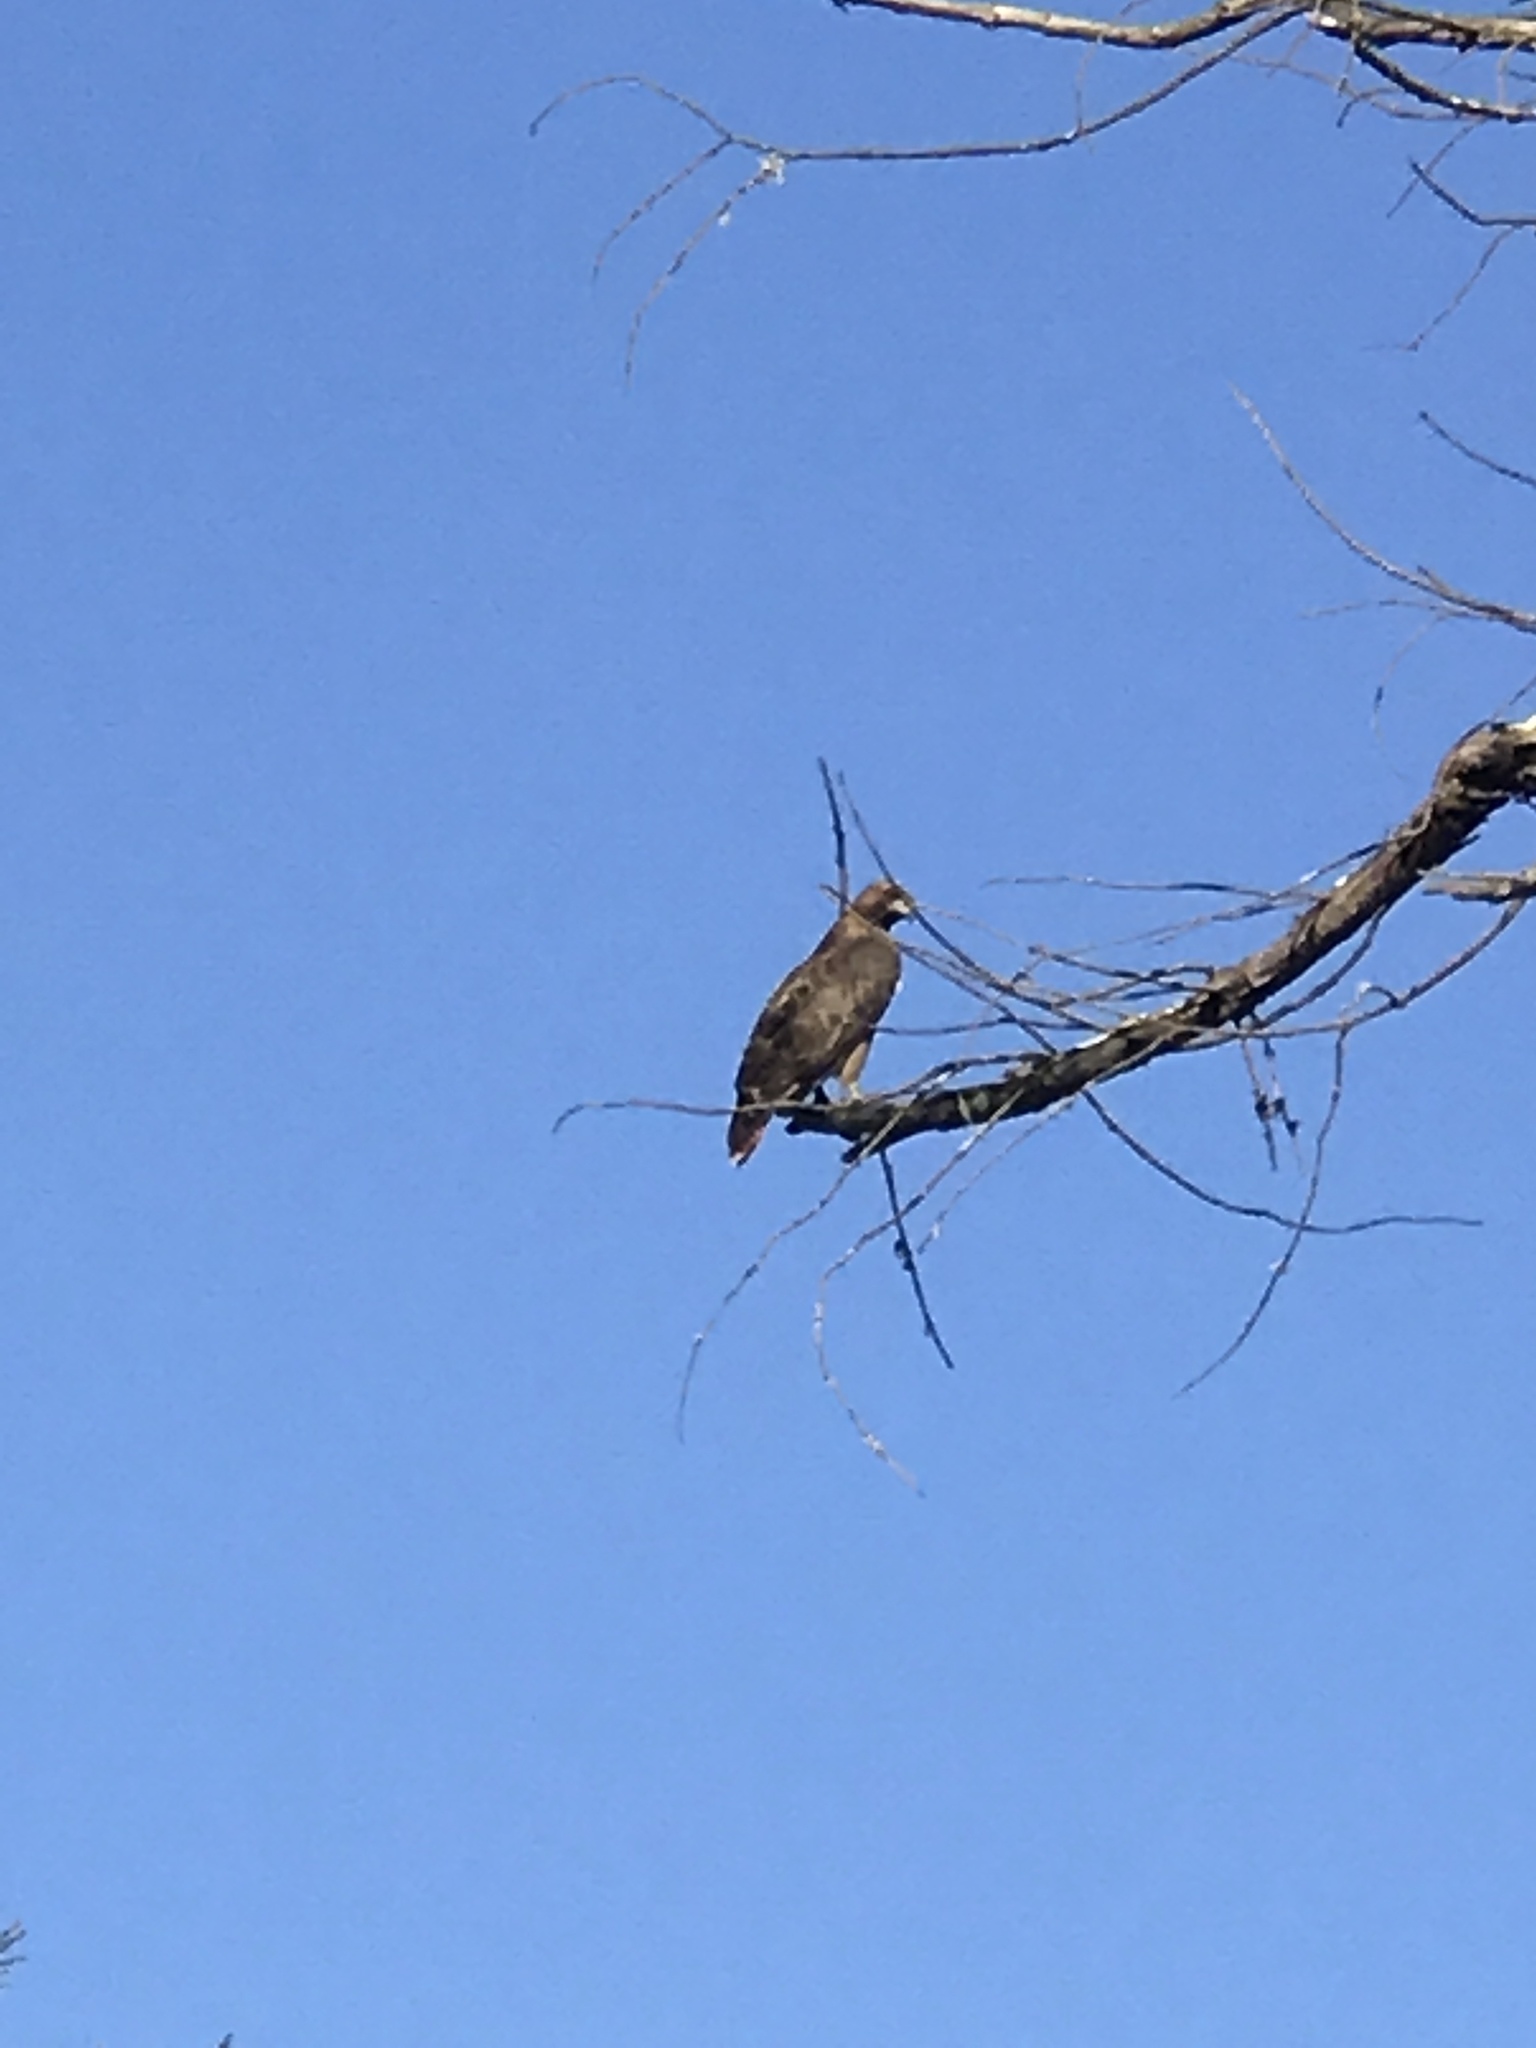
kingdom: Animalia
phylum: Chordata
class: Aves
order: Accipitriformes
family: Accipitridae
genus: Buteo
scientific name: Buteo jamaicensis
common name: Red-tailed hawk
